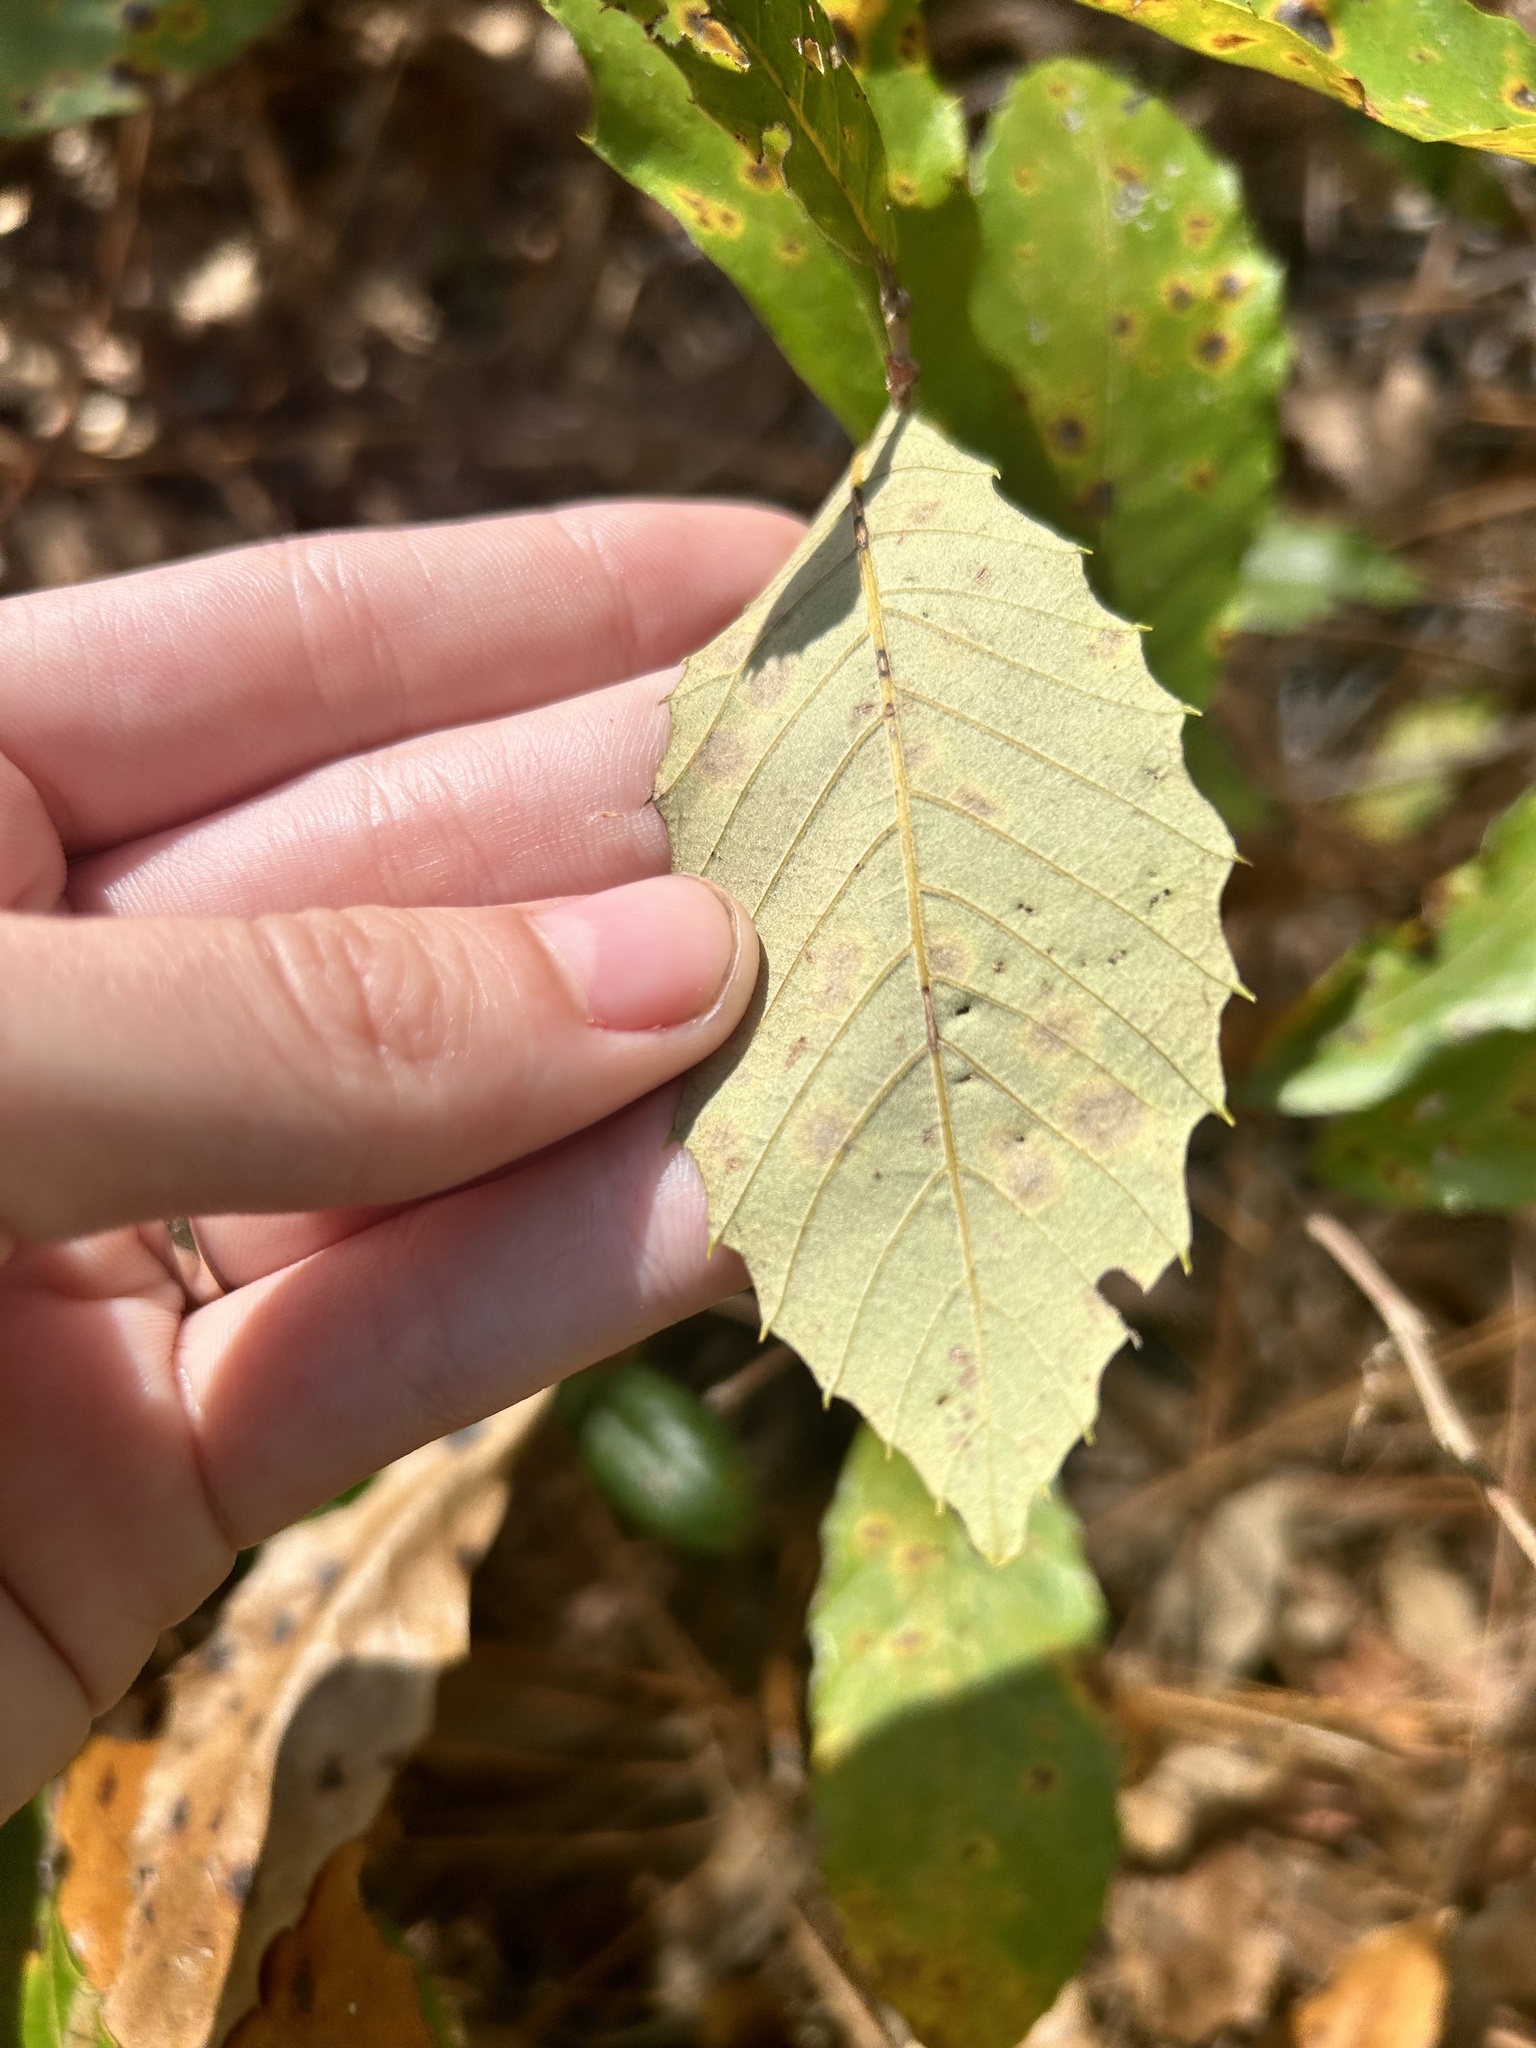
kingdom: Plantae
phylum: Tracheophyta
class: Magnoliopsida
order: Fagales
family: Fagaceae
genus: Castanea
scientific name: Castanea pumila
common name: Chinkapin
